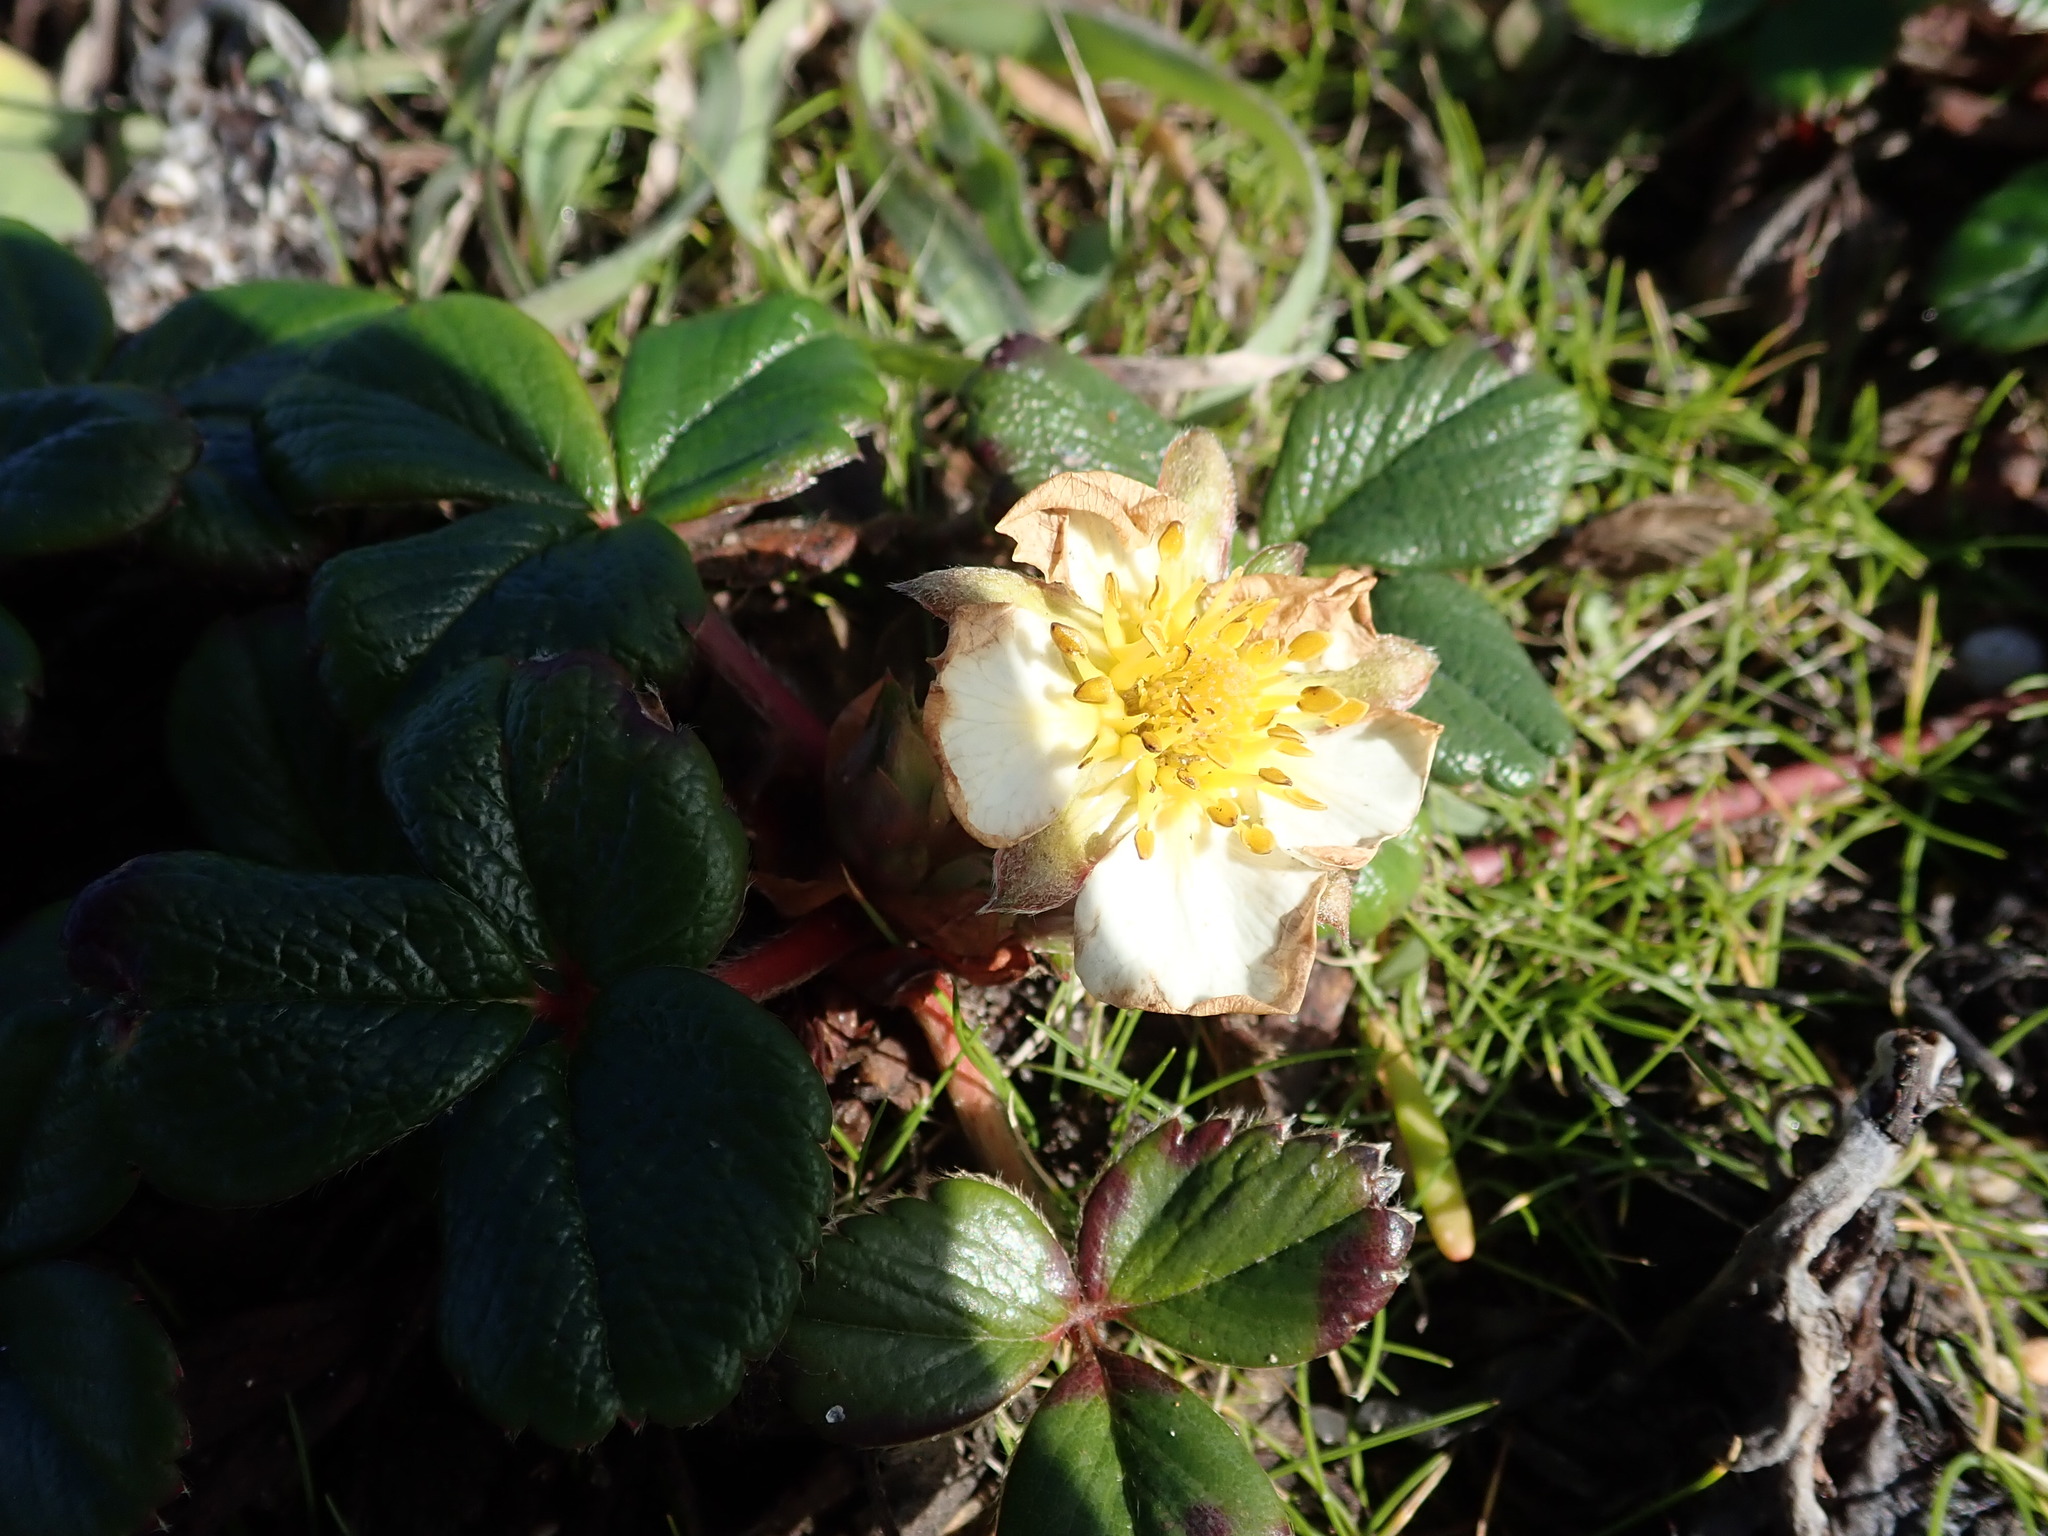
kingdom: Plantae
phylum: Tracheophyta
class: Magnoliopsida
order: Rosales
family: Rosaceae
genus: Fragaria
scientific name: Fragaria chiloensis
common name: Beach strawberry
